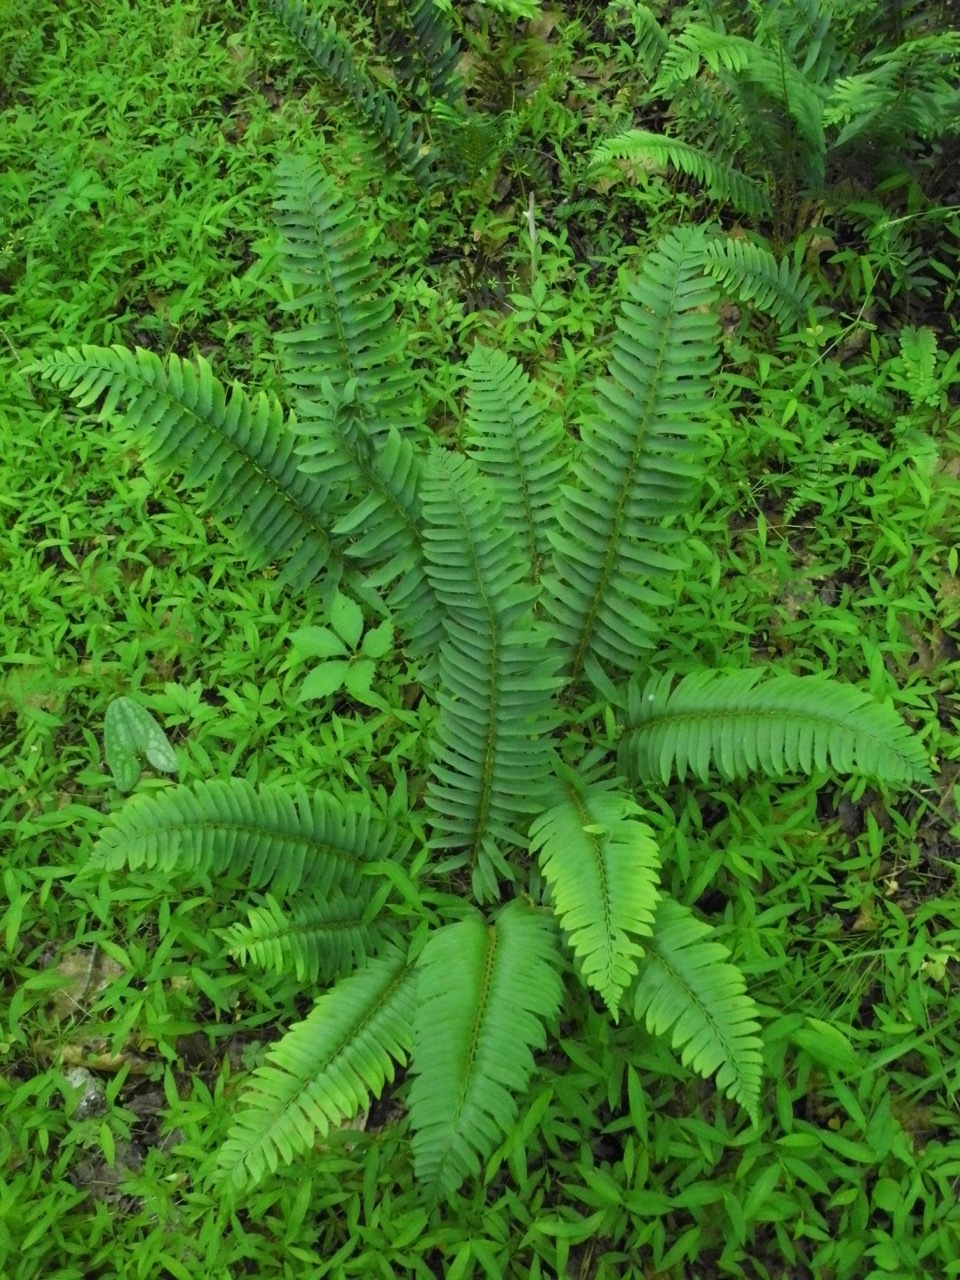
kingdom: Plantae
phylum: Tracheophyta
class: Polypodiopsida
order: Polypodiales
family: Dryopteridaceae
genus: Polystichum
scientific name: Polystichum acrostichoides
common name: Christmas fern
